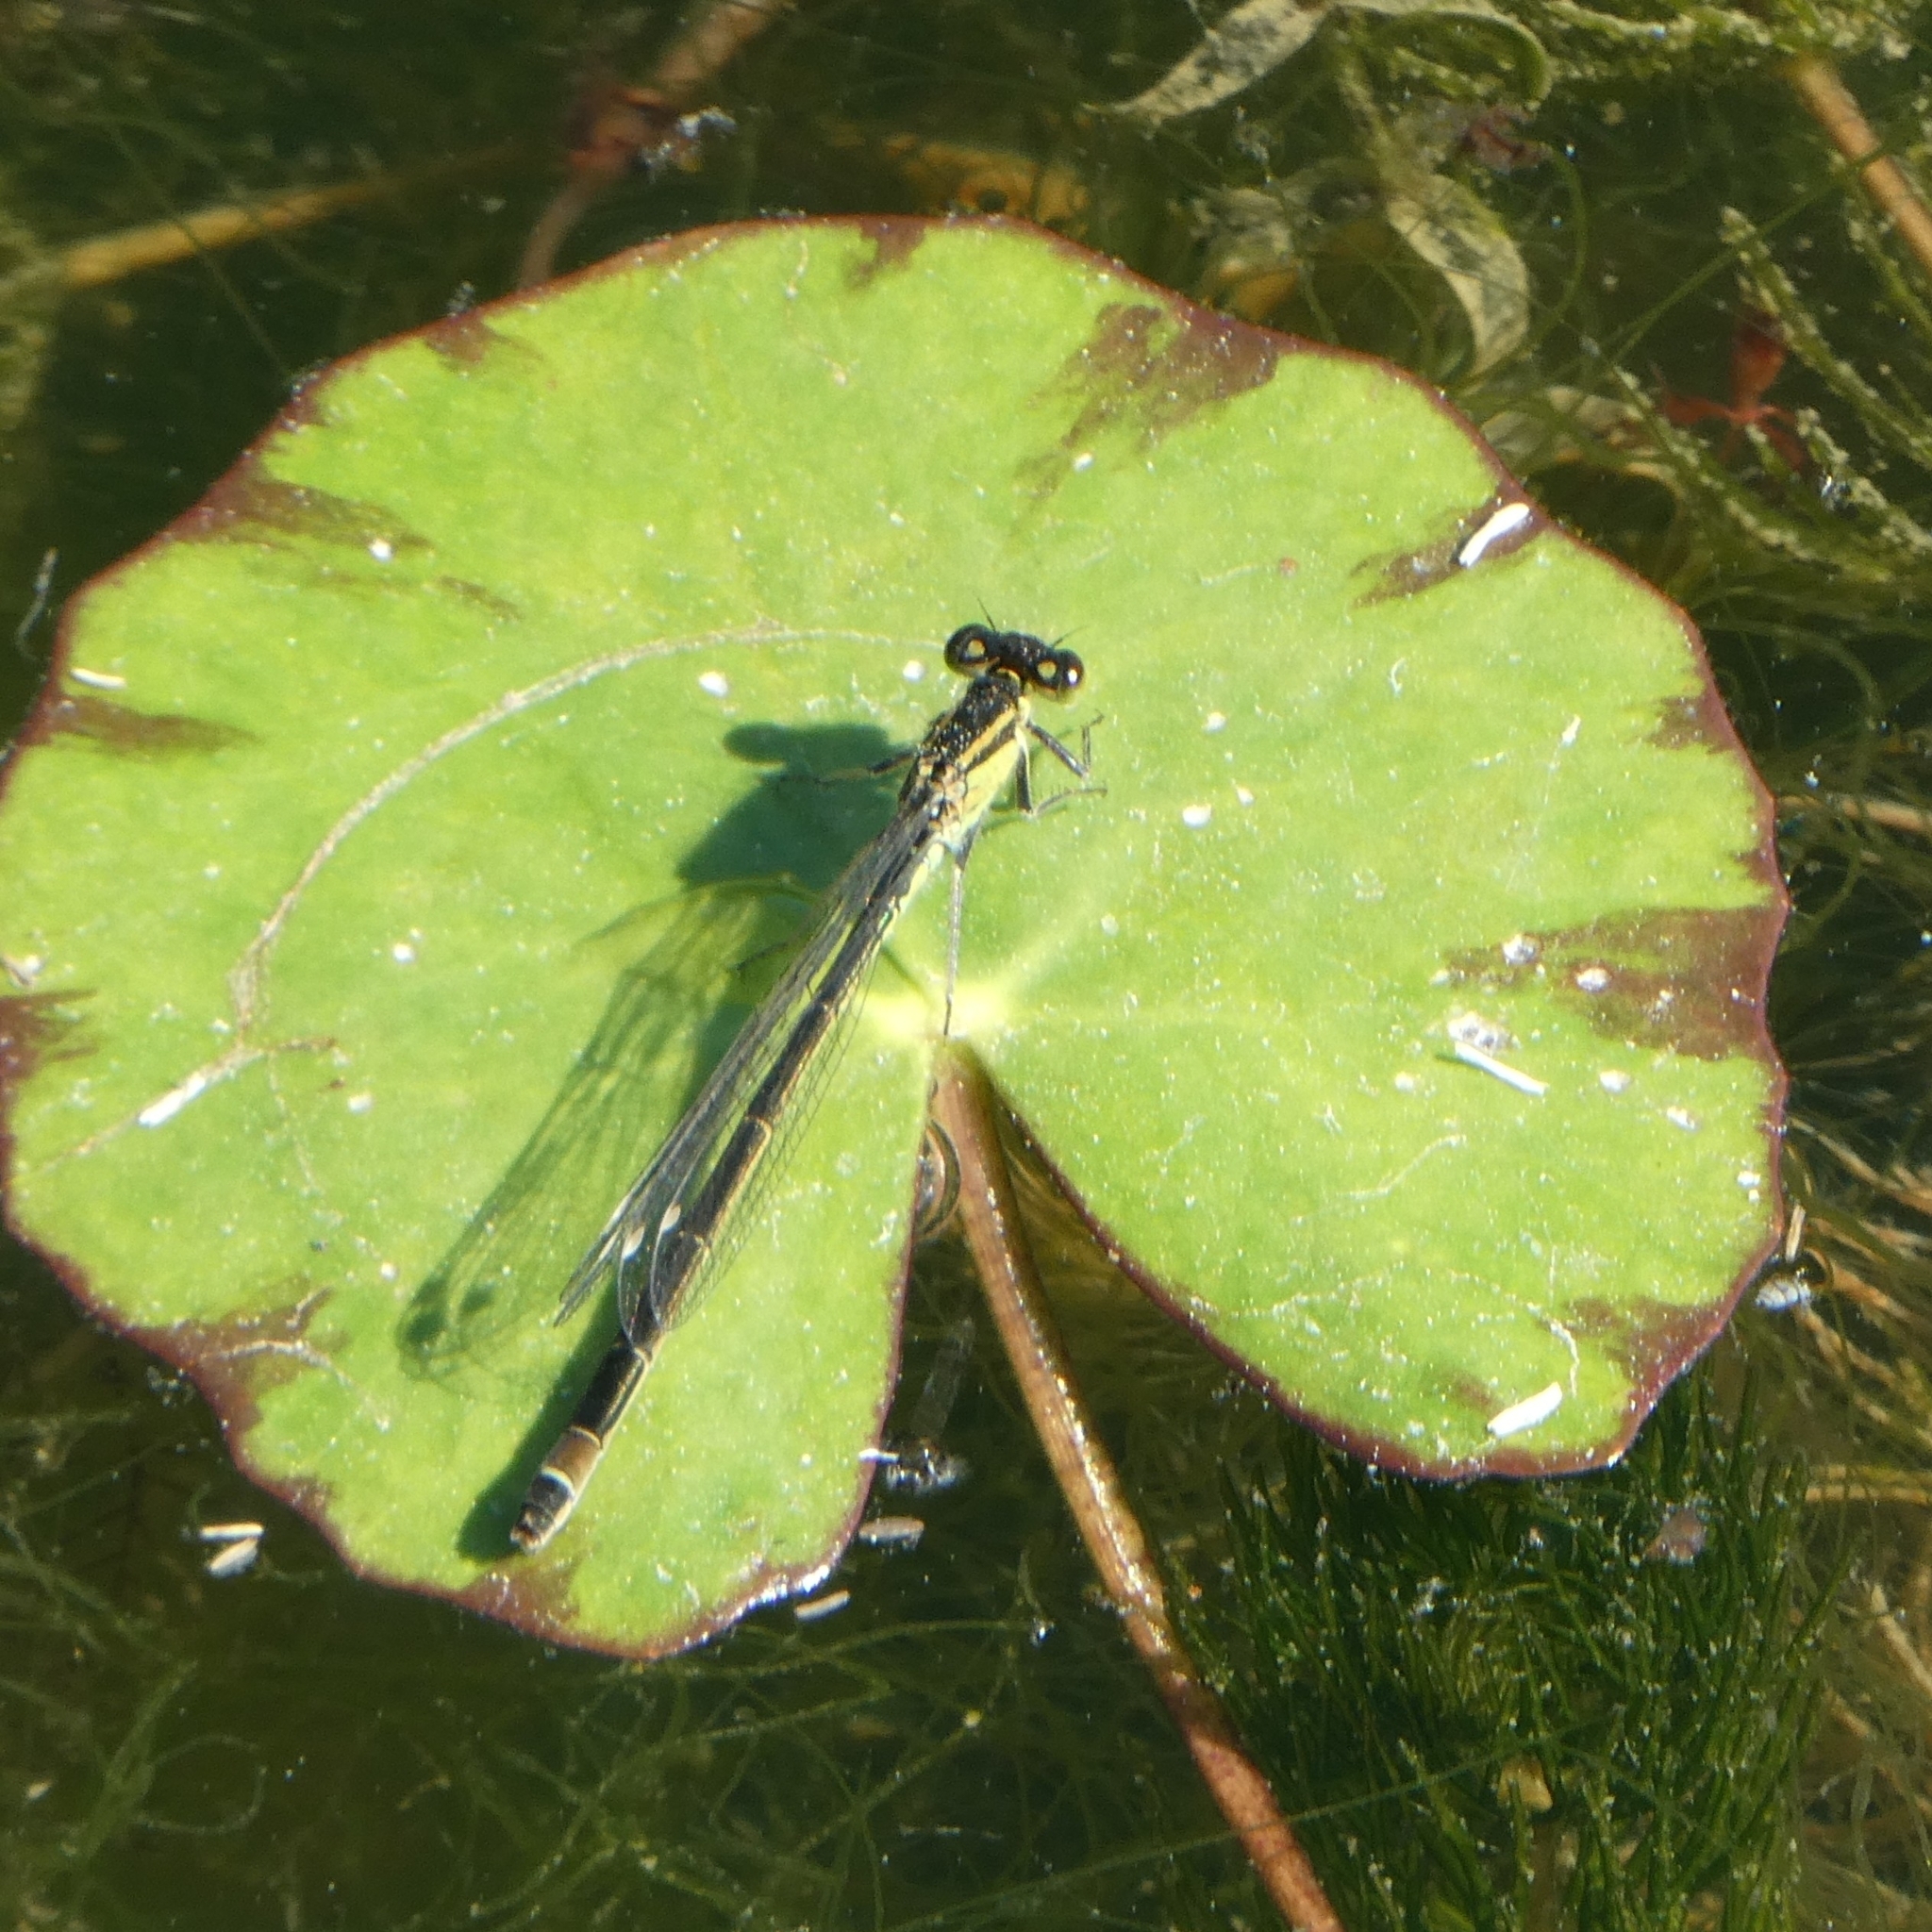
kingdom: Animalia
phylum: Arthropoda
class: Insecta
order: Odonata
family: Coenagrionidae
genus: Ischnura
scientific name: Ischnura elegans
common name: Blue-tailed damselfly
